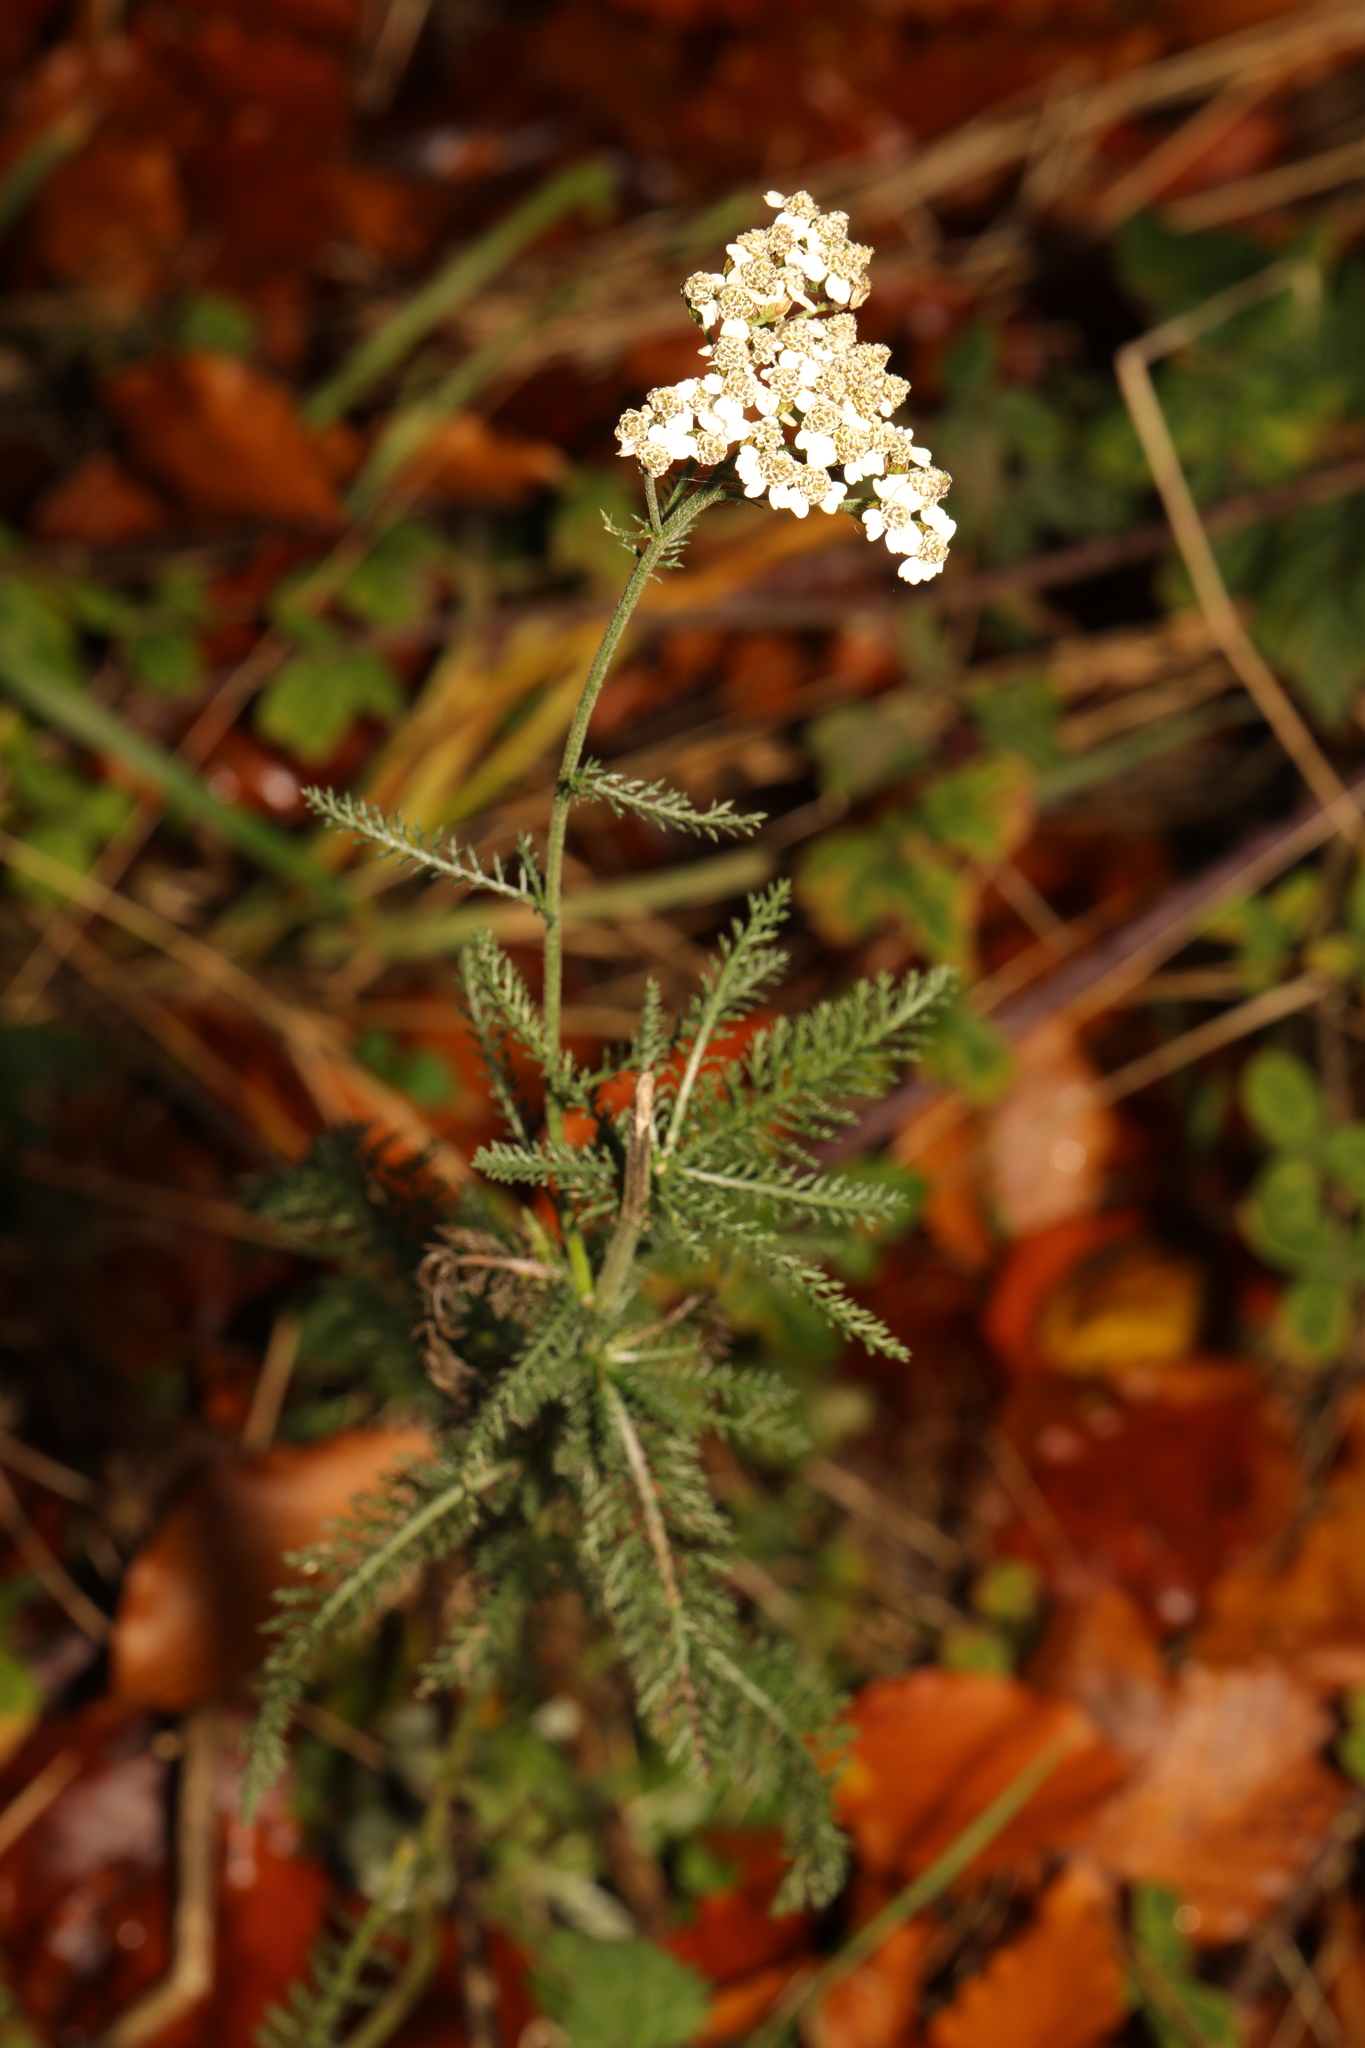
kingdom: Plantae
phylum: Tracheophyta
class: Magnoliopsida
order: Asterales
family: Asteraceae
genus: Achillea
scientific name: Achillea millefolium
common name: Yarrow
